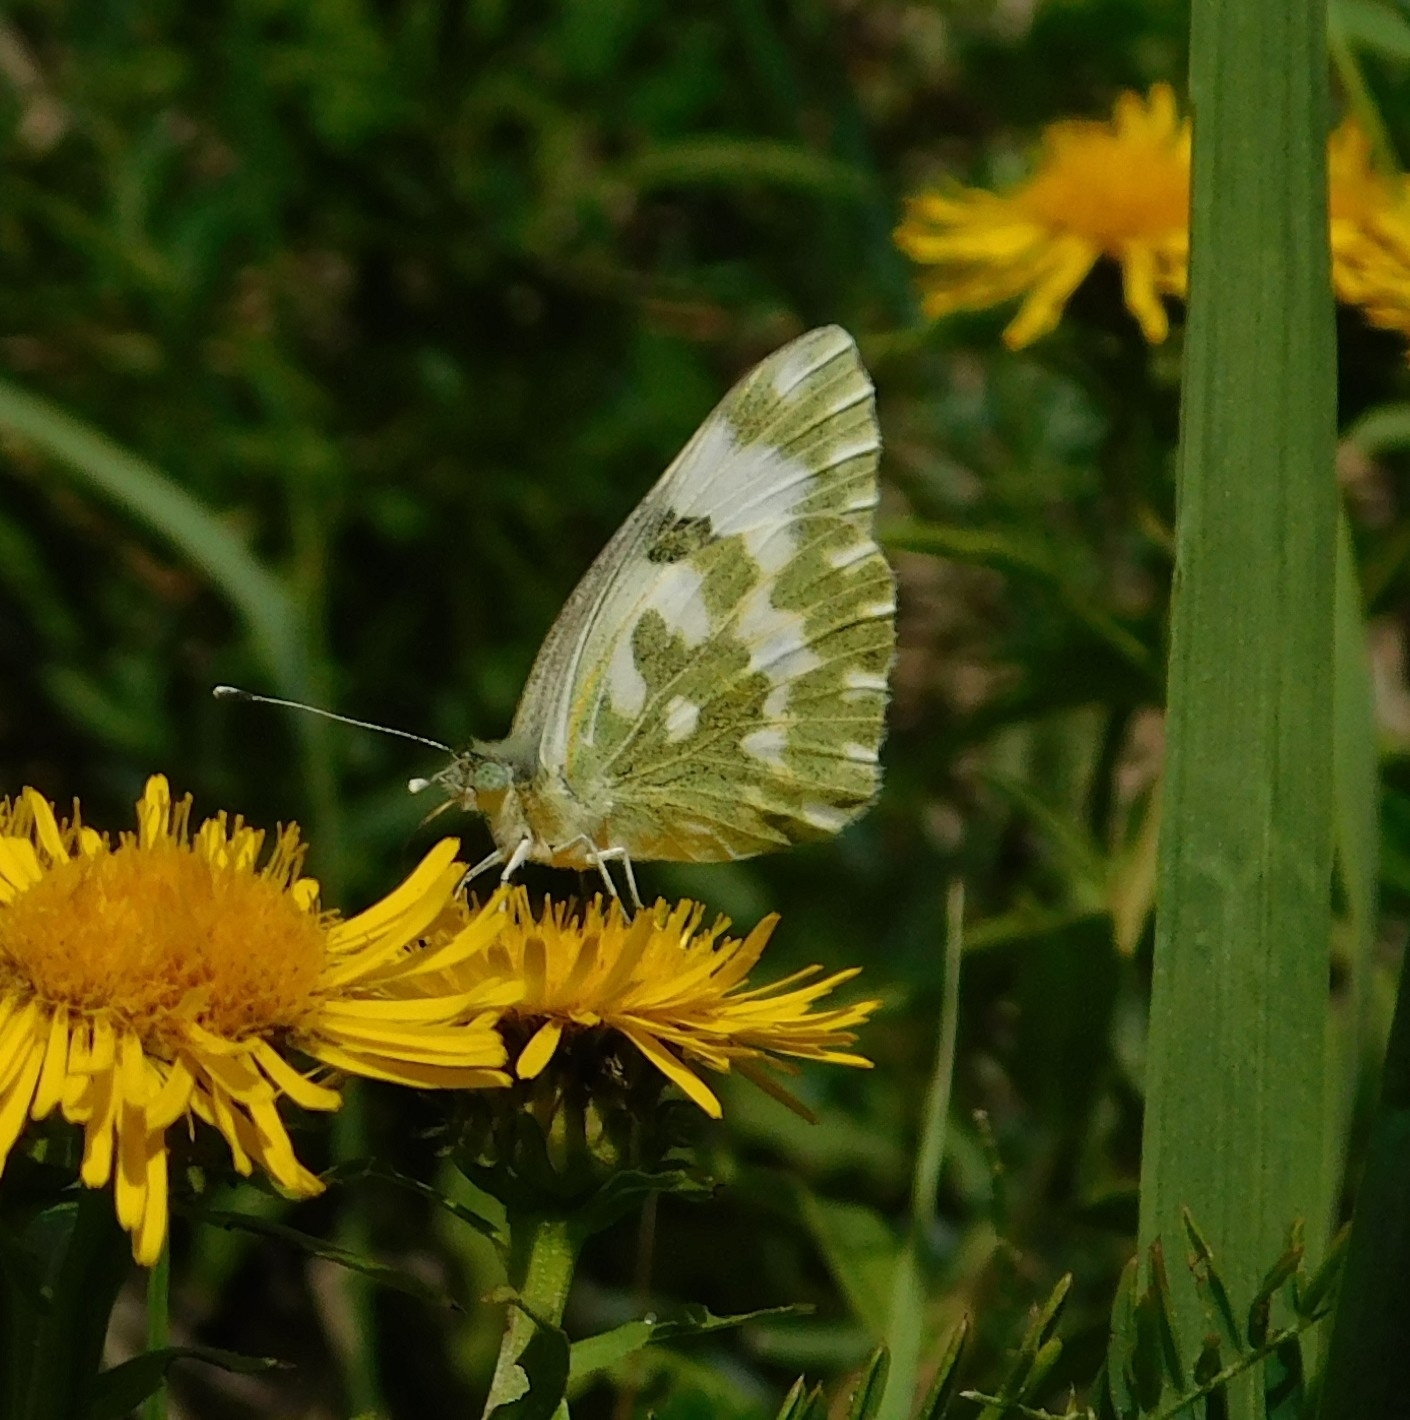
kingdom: Animalia
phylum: Arthropoda
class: Insecta
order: Lepidoptera
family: Pieridae
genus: Pontia
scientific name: Pontia edusa
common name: Eastern bath white
